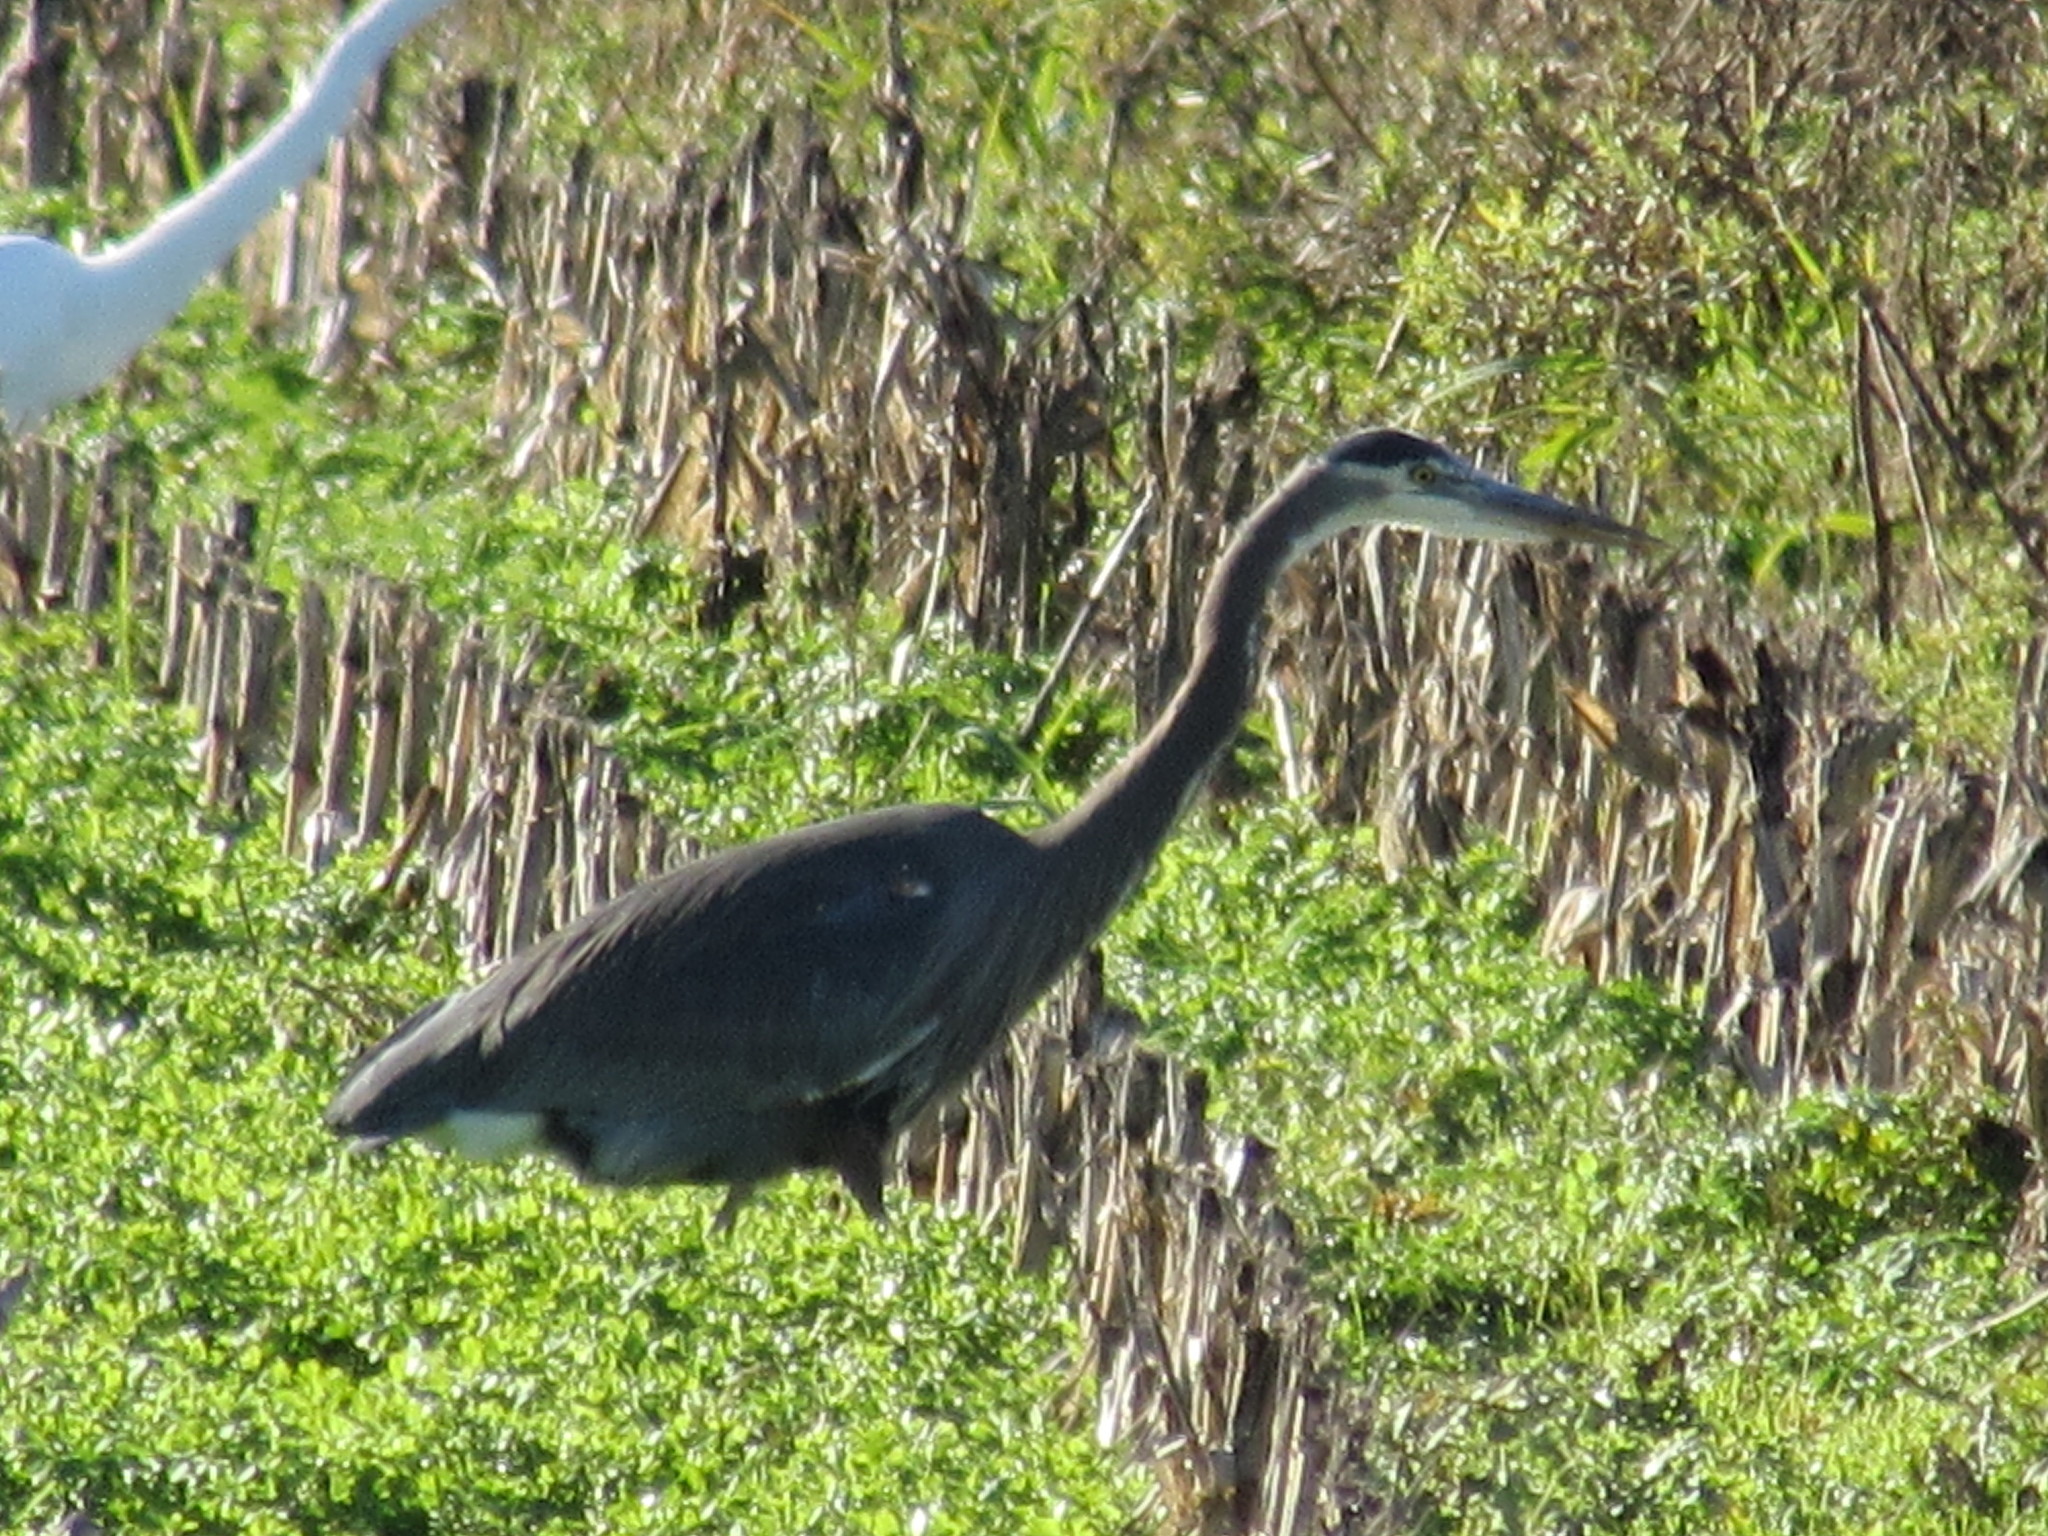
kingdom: Animalia
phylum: Chordata
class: Aves
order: Pelecaniformes
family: Ardeidae
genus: Ardea
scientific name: Ardea herodias
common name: Great blue heron
